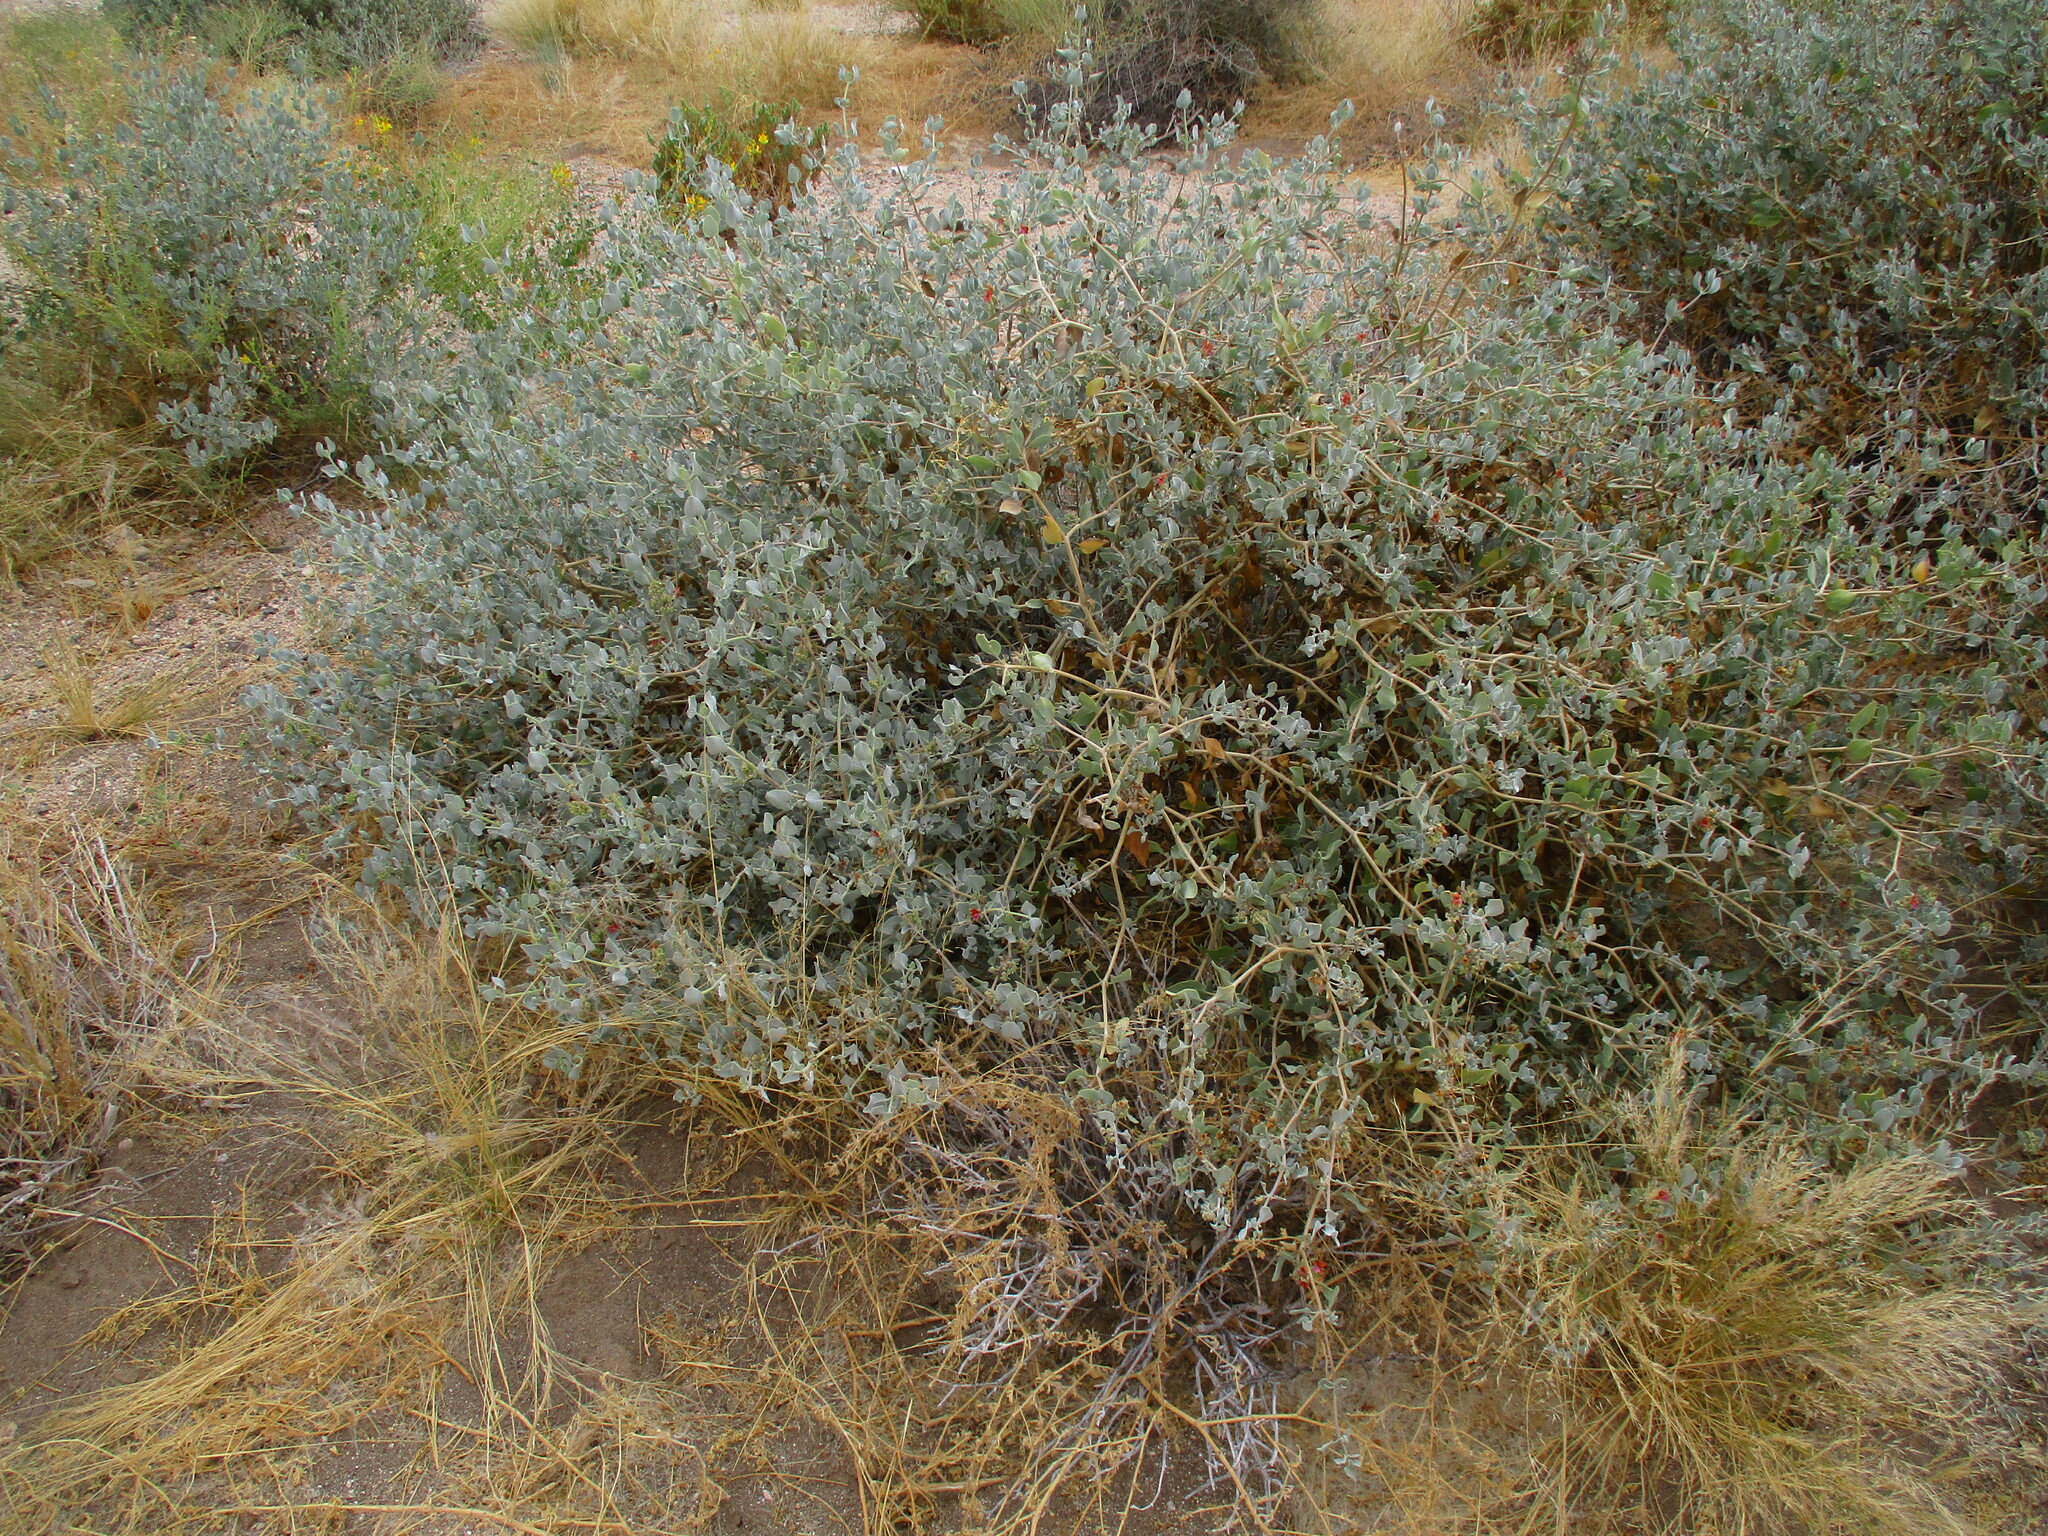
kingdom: Plantae
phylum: Tracheophyta
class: Magnoliopsida
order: Lamiales
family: Acanthaceae
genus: Petalidium
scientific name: Petalidium variabile
